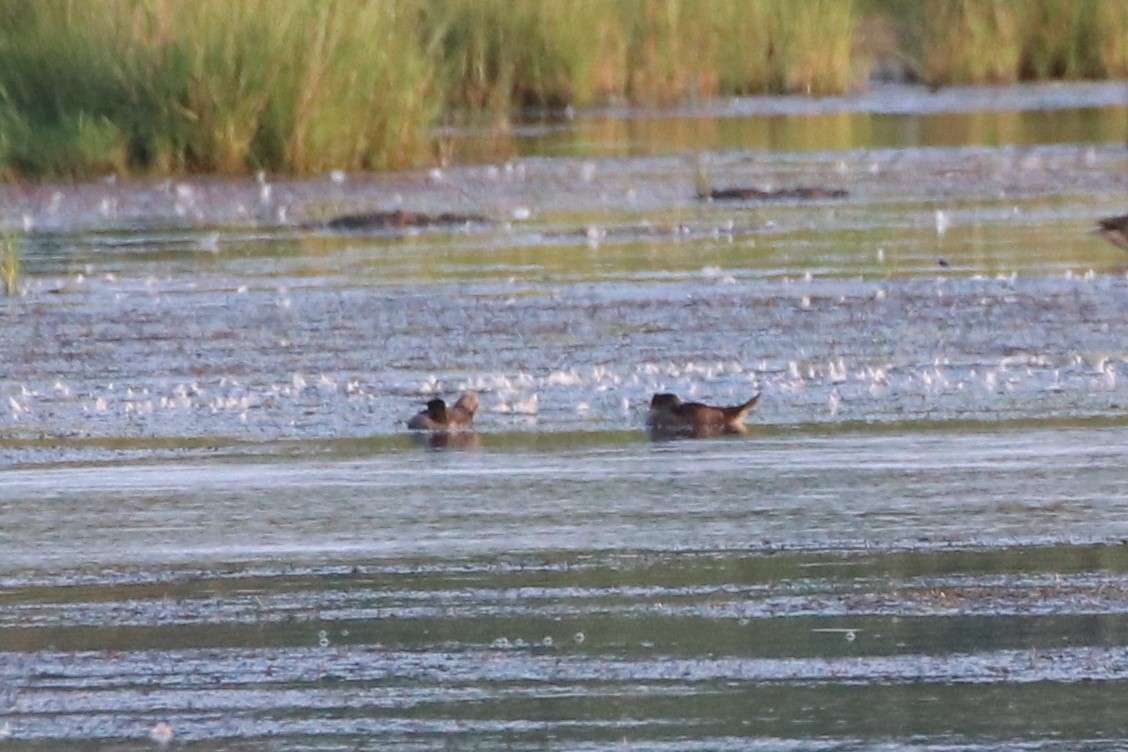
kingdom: Animalia
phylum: Chordata
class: Aves
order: Anseriformes
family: Anatidae
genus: Lophodytes
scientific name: Lophodytes cucullatus
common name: Hooded merganser
